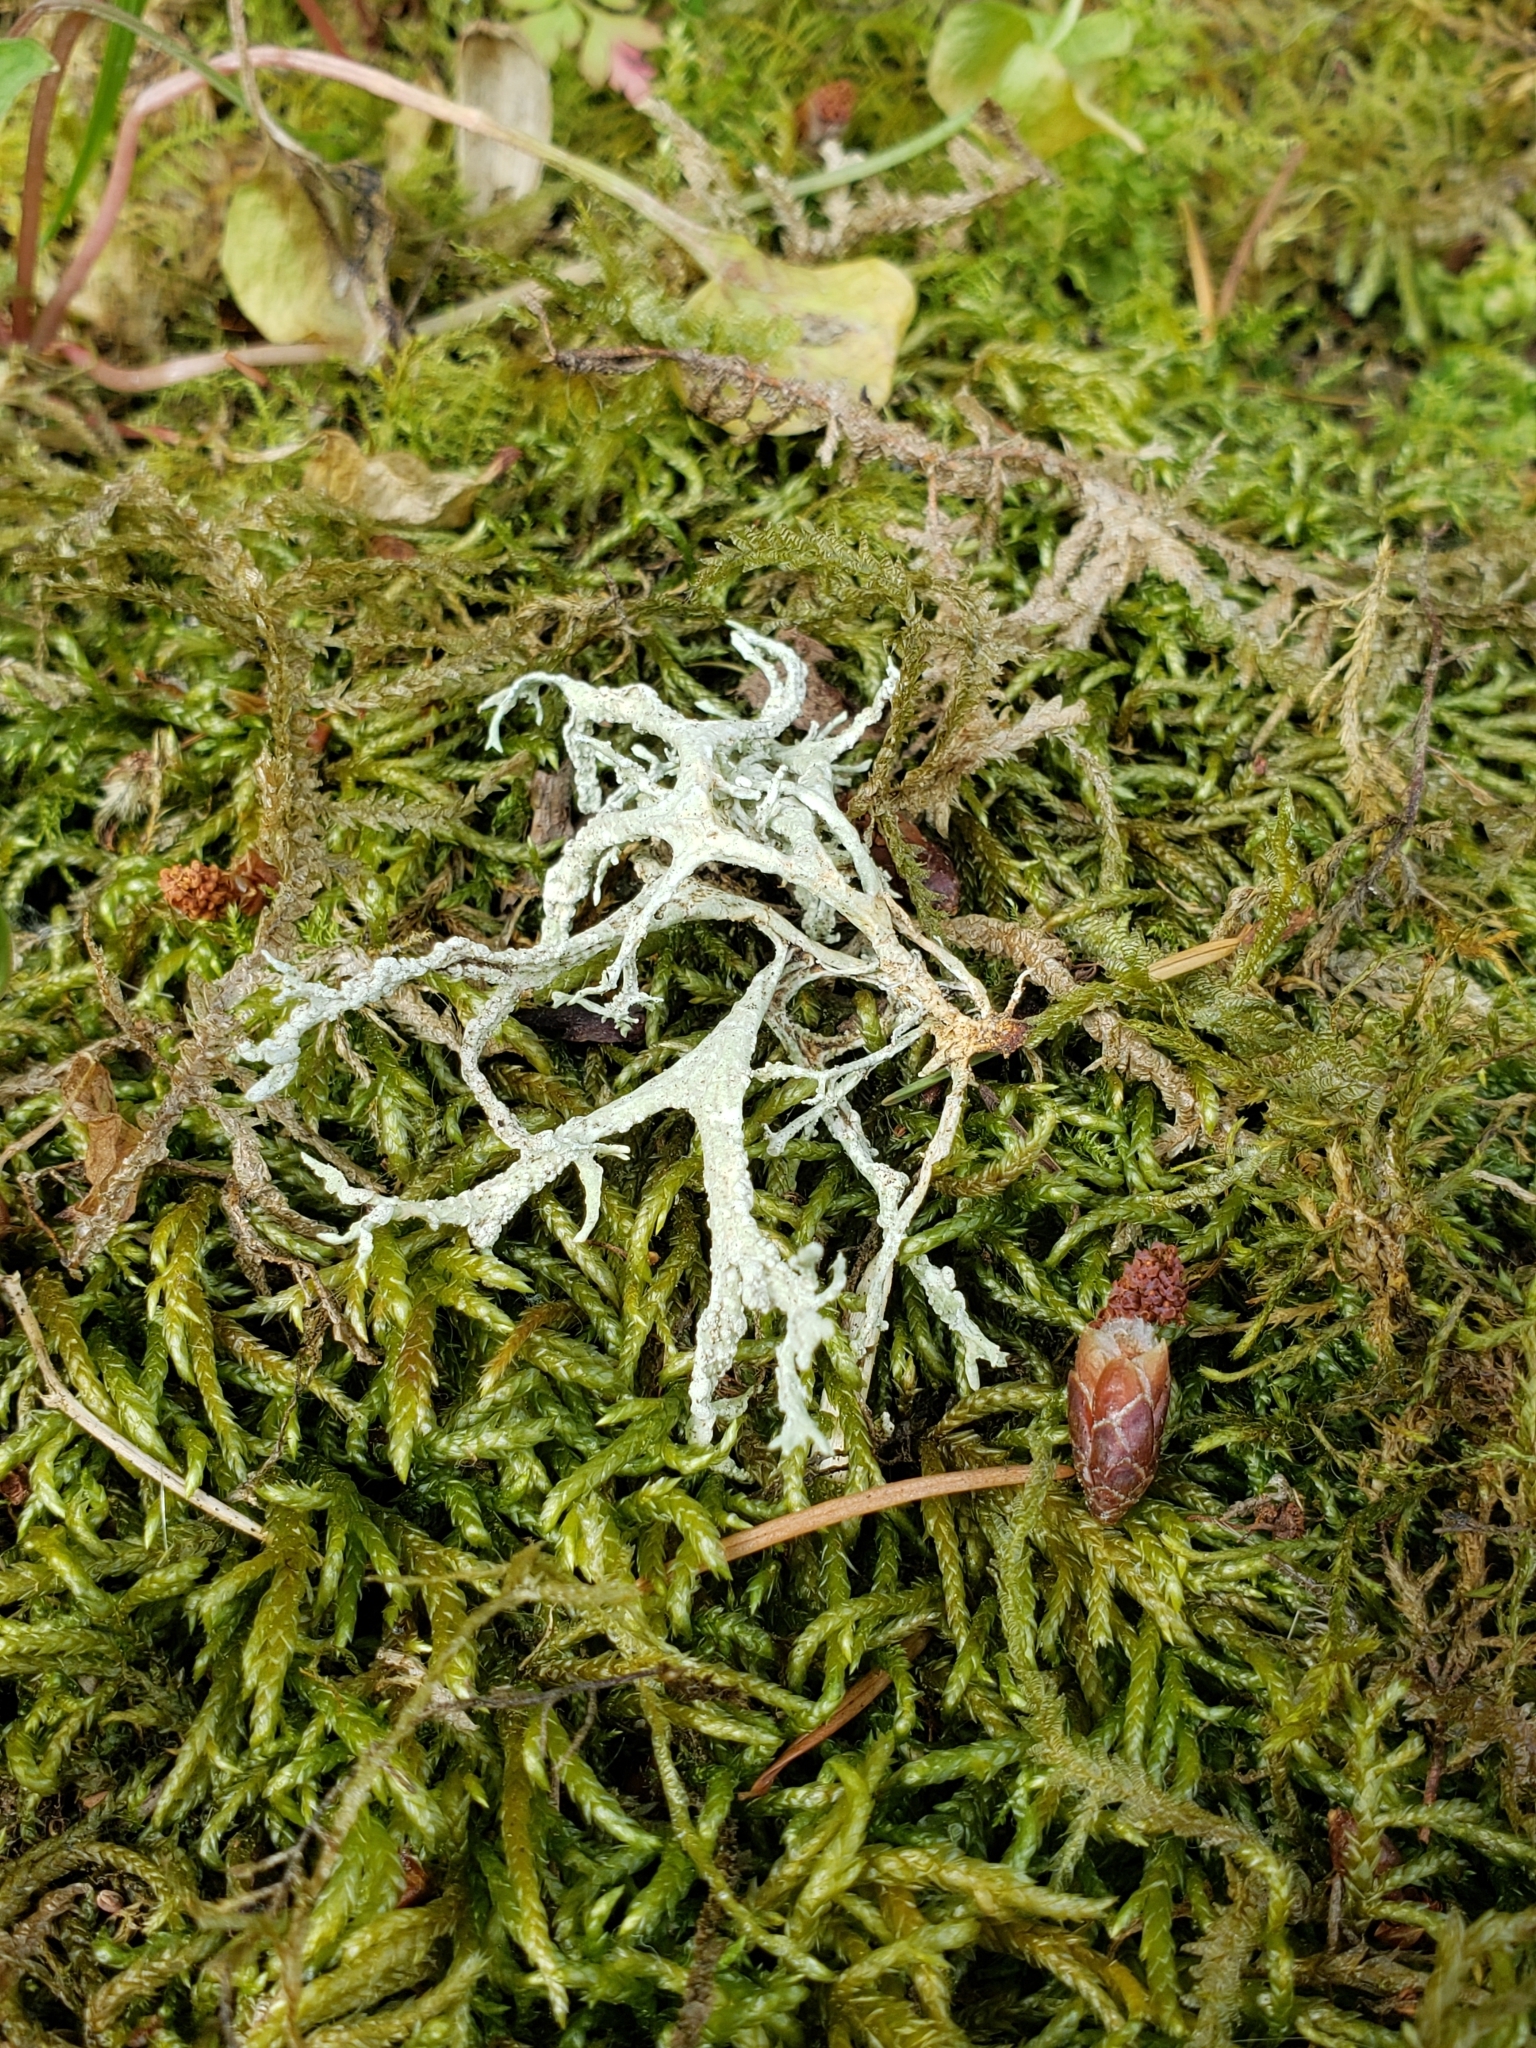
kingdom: Fungi
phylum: Ascomycota
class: Lecanoromycetes
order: Lecanorales
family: Parmeliaceae
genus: Evernia
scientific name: Evernia prunastri
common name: Oak moss
